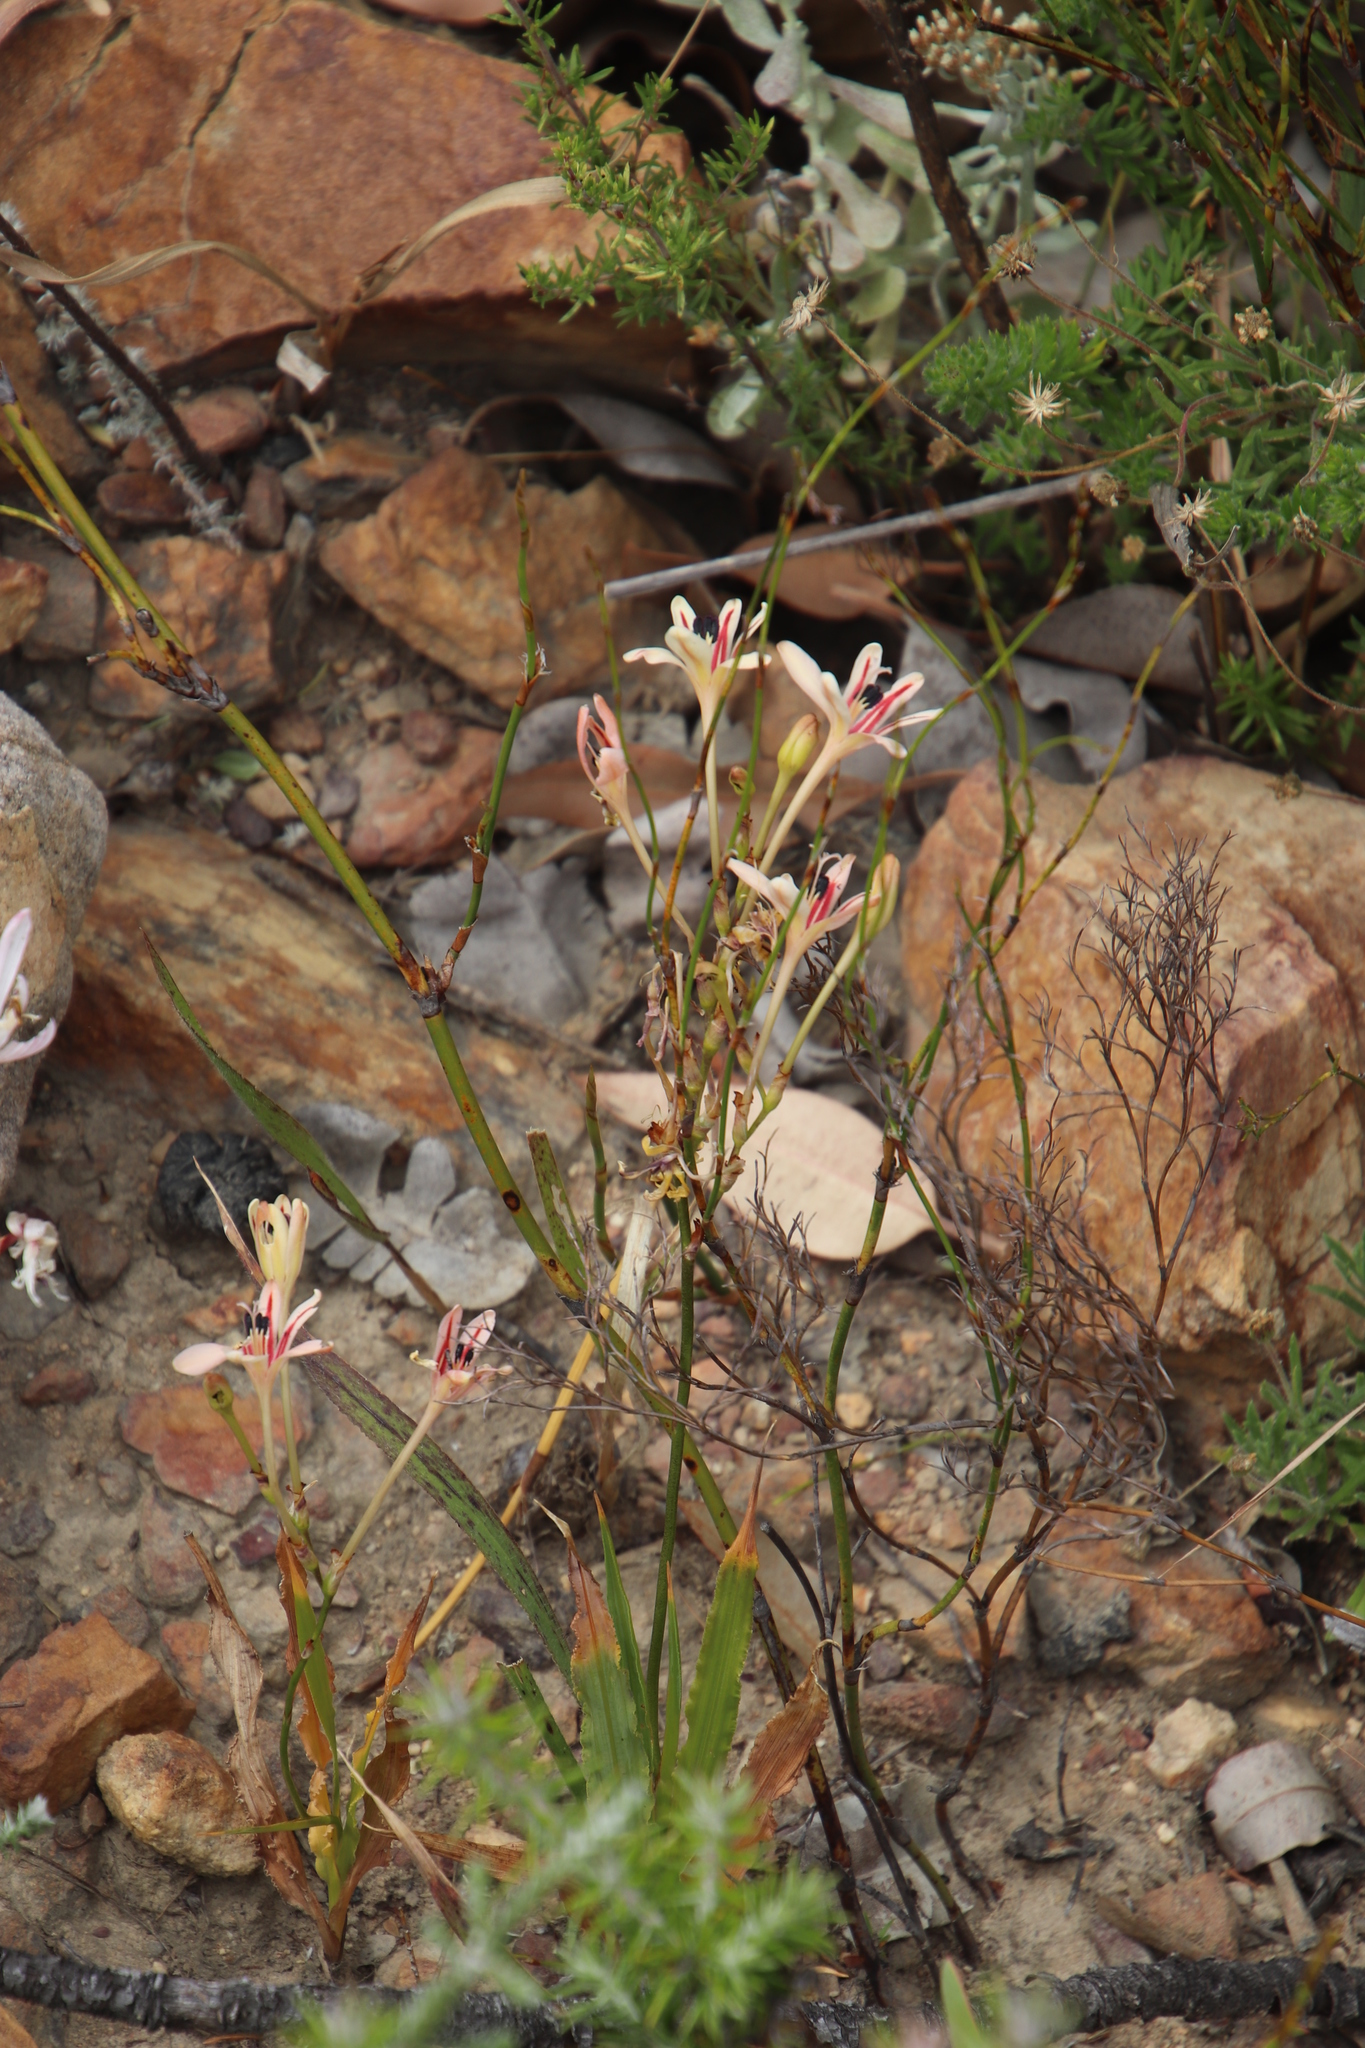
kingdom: Plantae
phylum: Tracheophyta
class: Liliopsida
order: Asparagales
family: Iridaceae
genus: Tritonia
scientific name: Tritonia undulata
